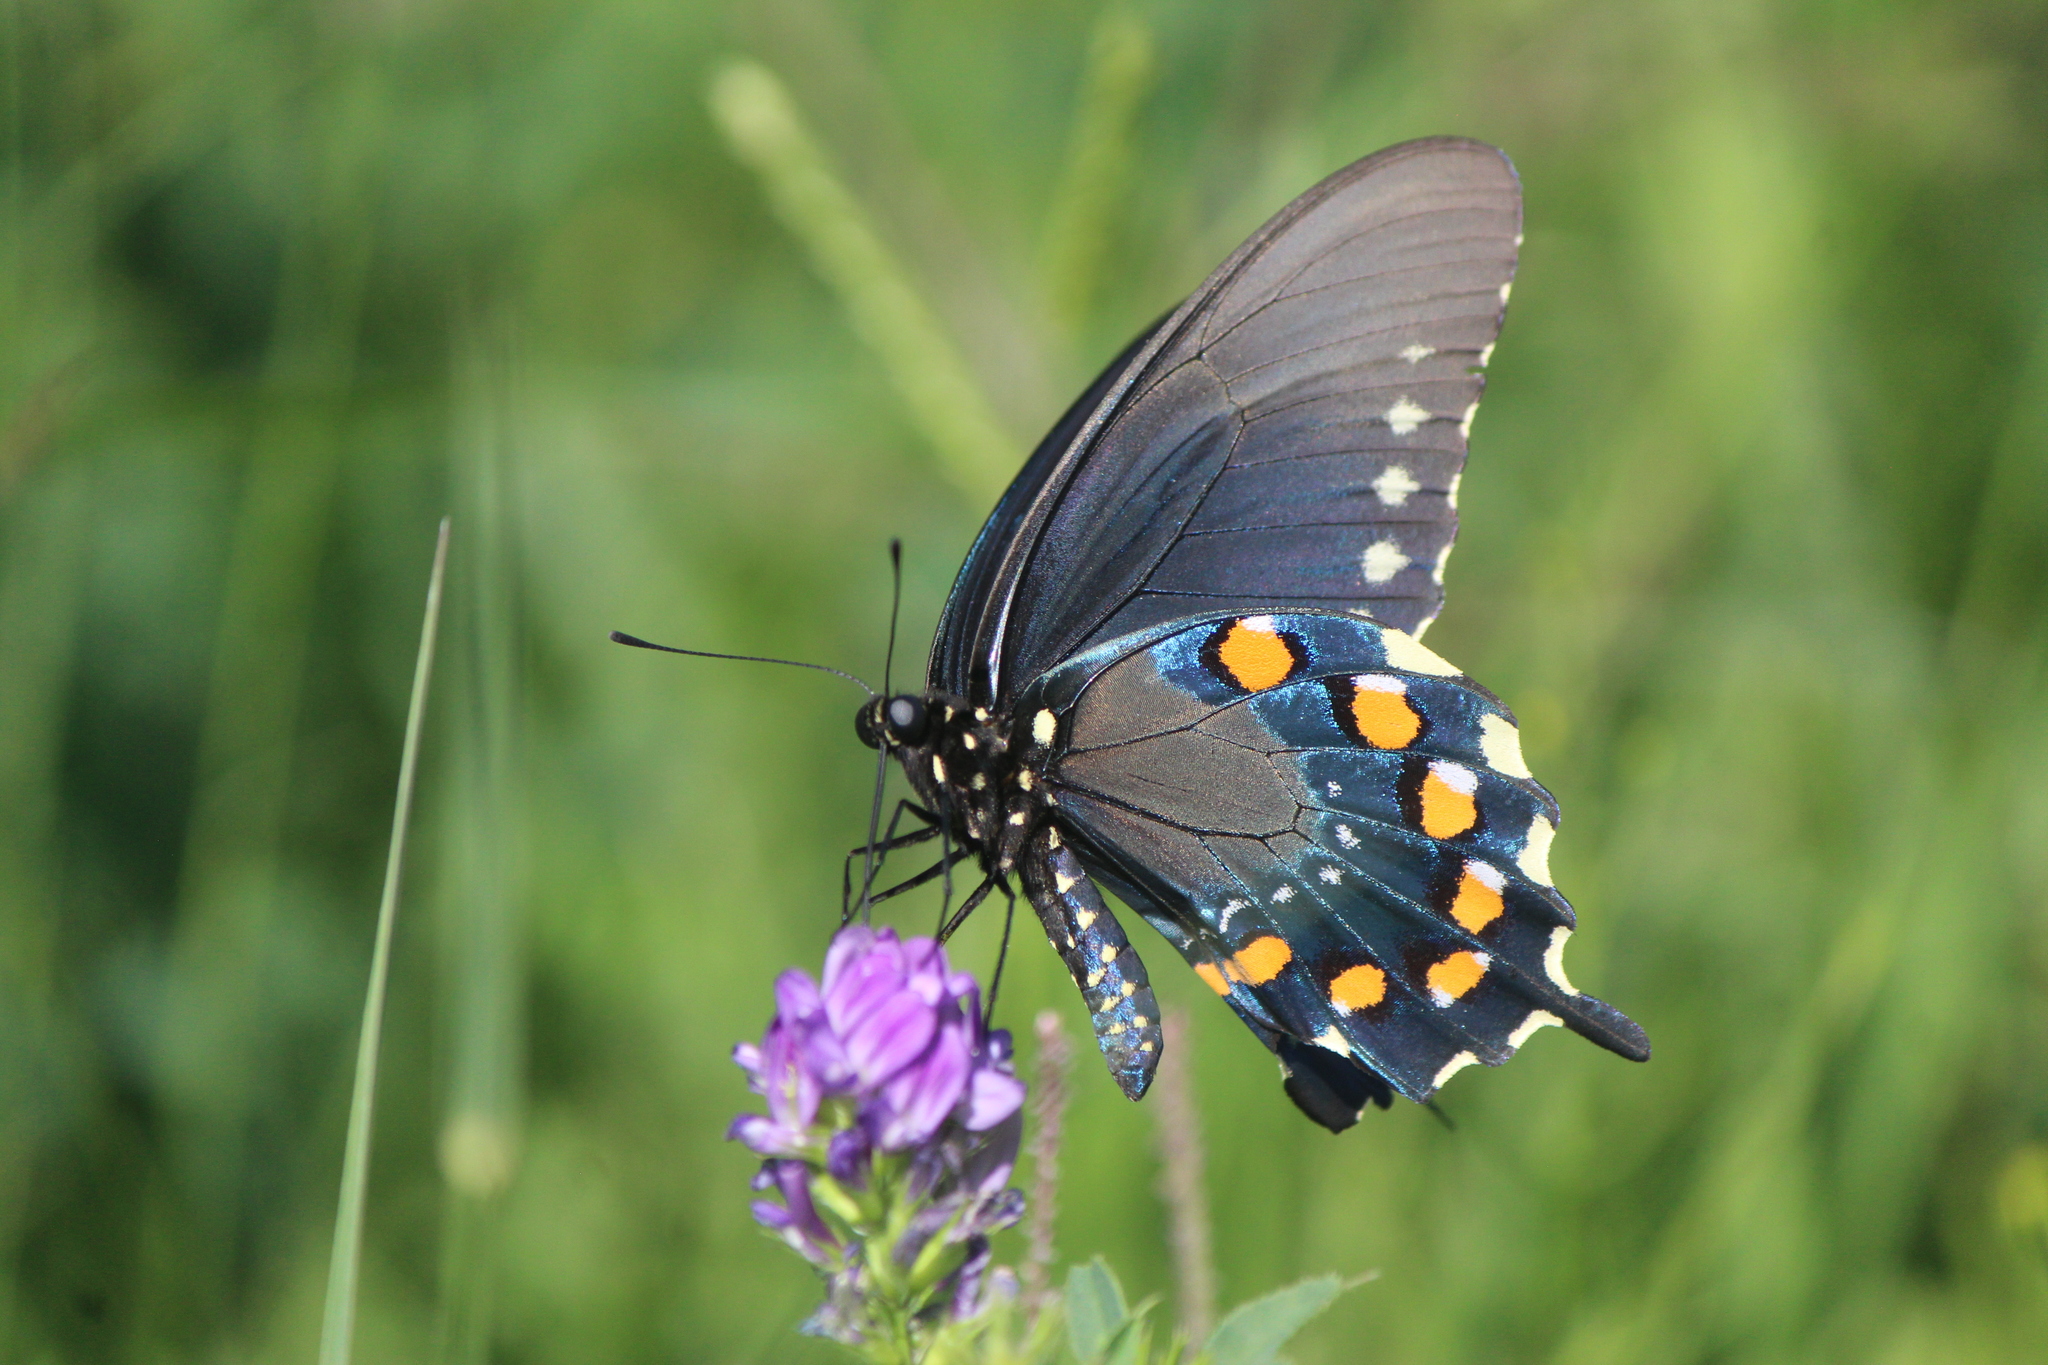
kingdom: Animalia
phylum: Arthropoda
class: Insecta
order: Lepidoptera
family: Papilionidae
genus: Battus
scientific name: Battus philenor
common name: Pipevine swallowtail
